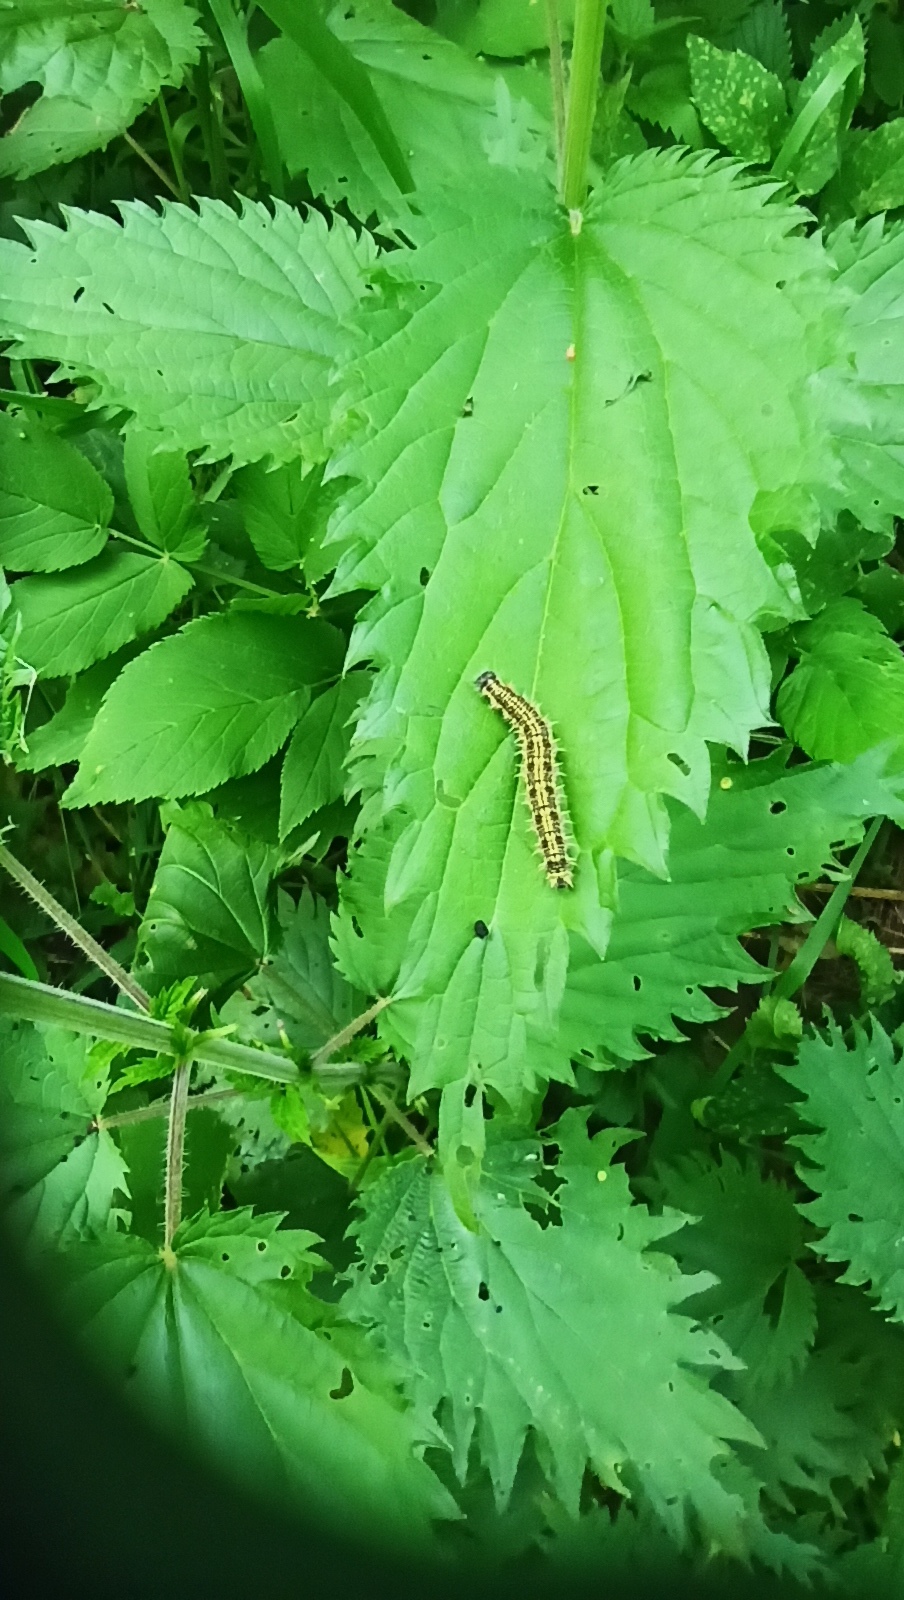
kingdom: Animalia
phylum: Arthropoda
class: Insecta
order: Lepidoptera
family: Nymphalidae
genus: Aglais
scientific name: Aglais urticae
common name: Small tortoiseshell
